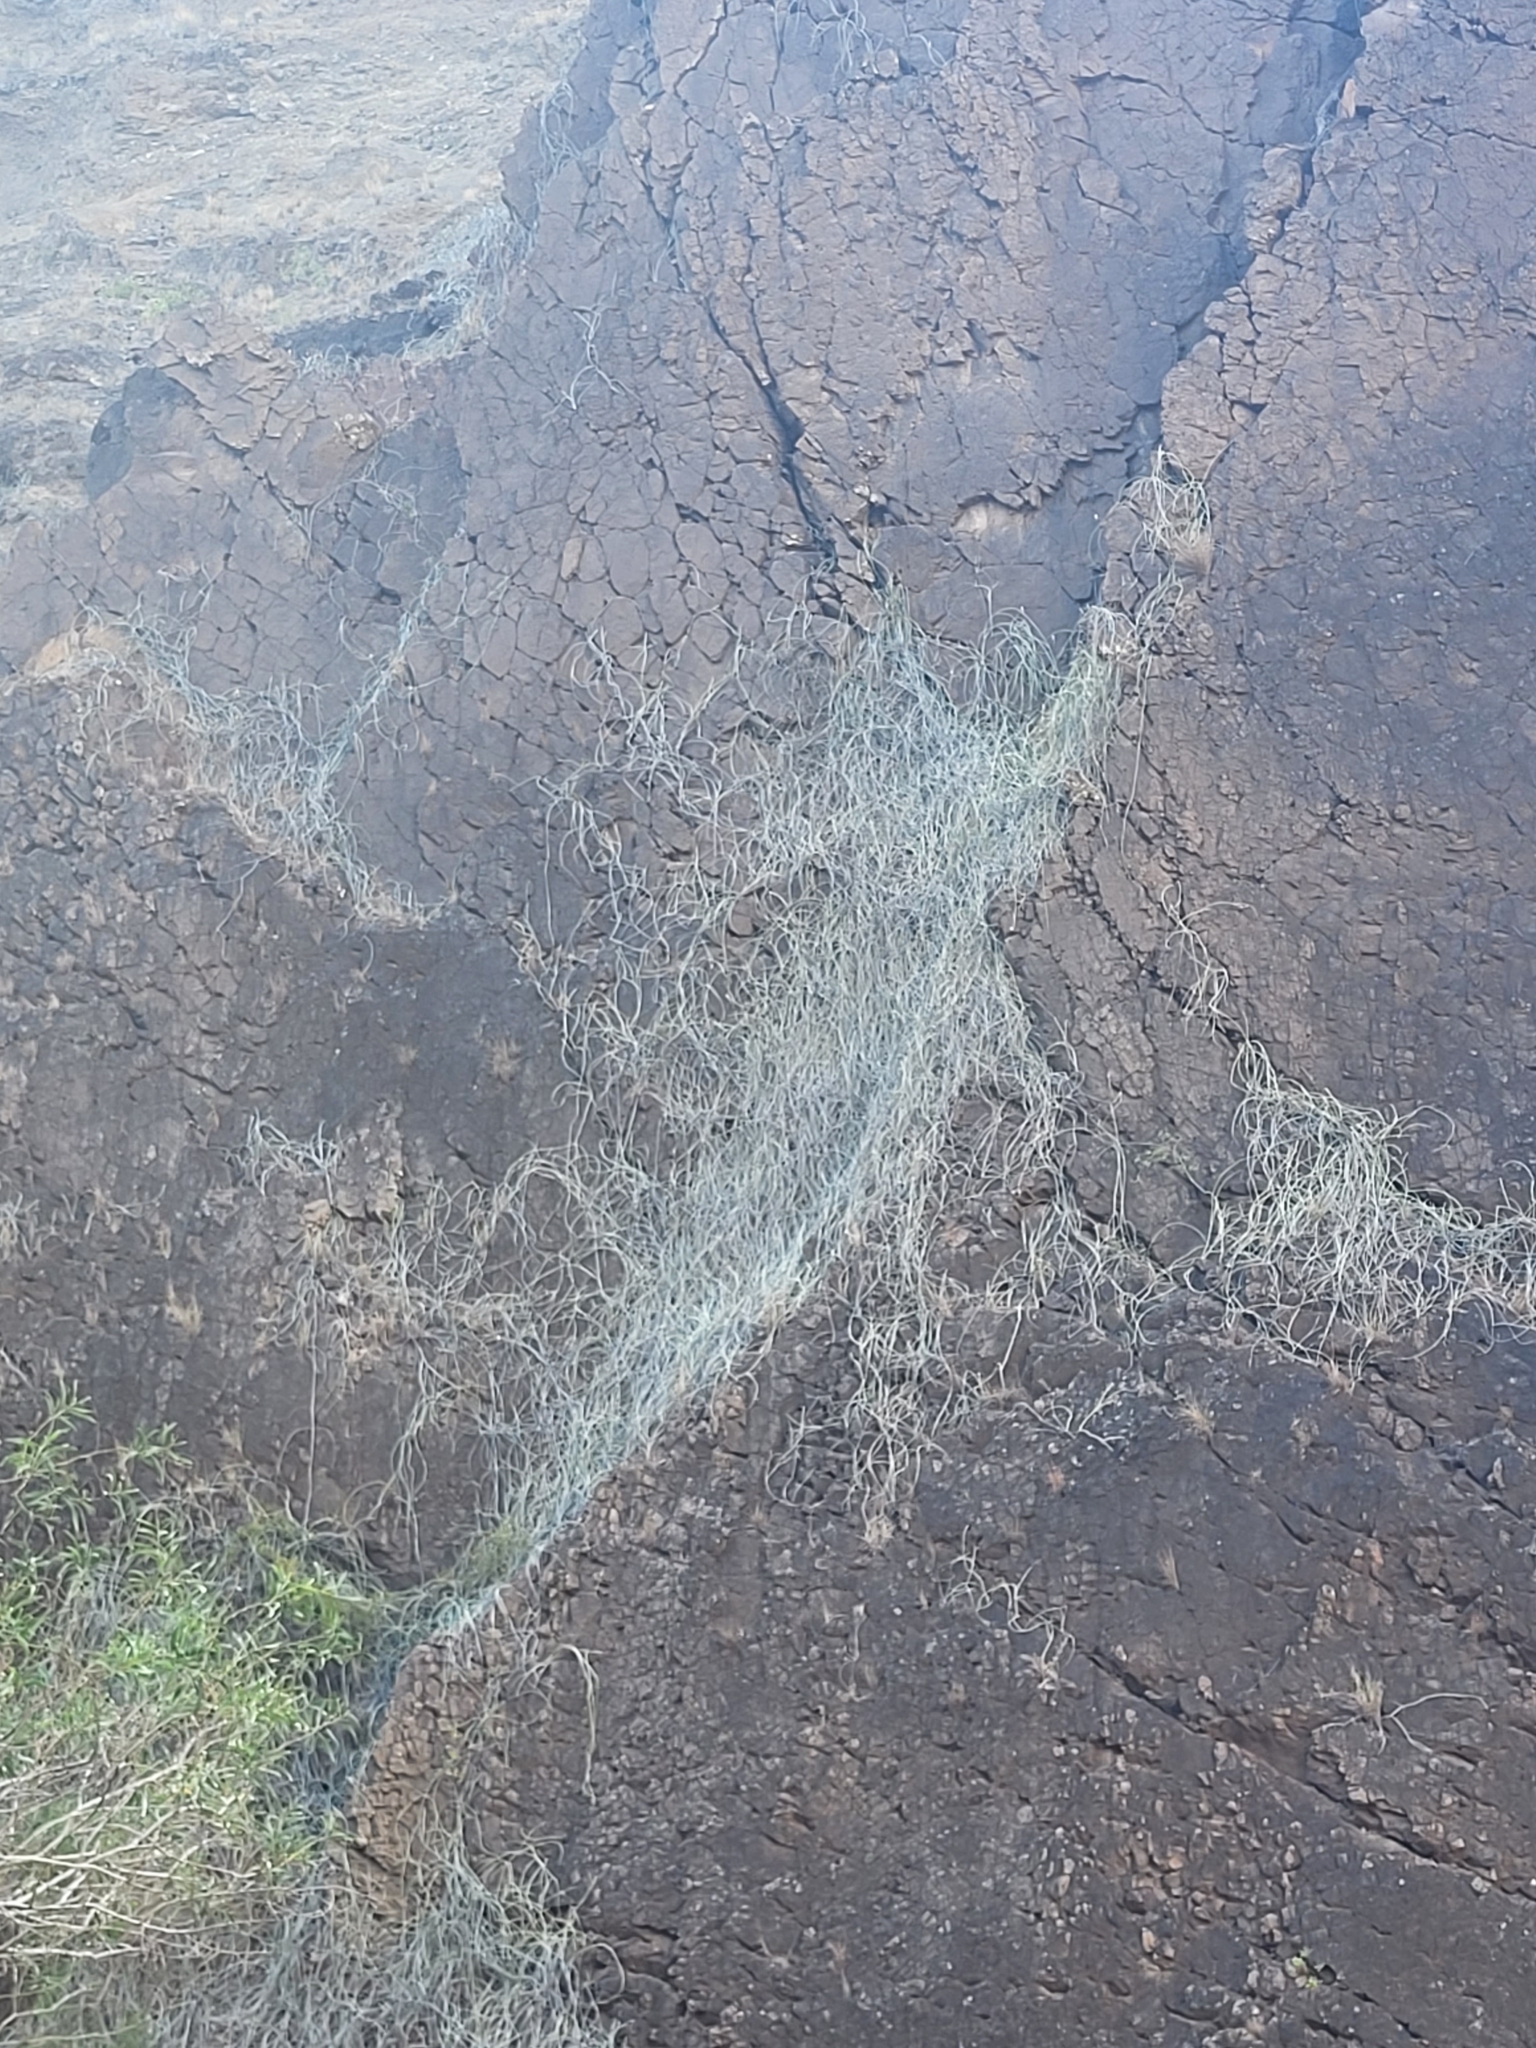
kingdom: Plantae
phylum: Tracheophyta
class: Magnoliopsida
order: Gentianales
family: Apocynaceae
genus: Cynanchum
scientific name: Cynanchum daltonii
